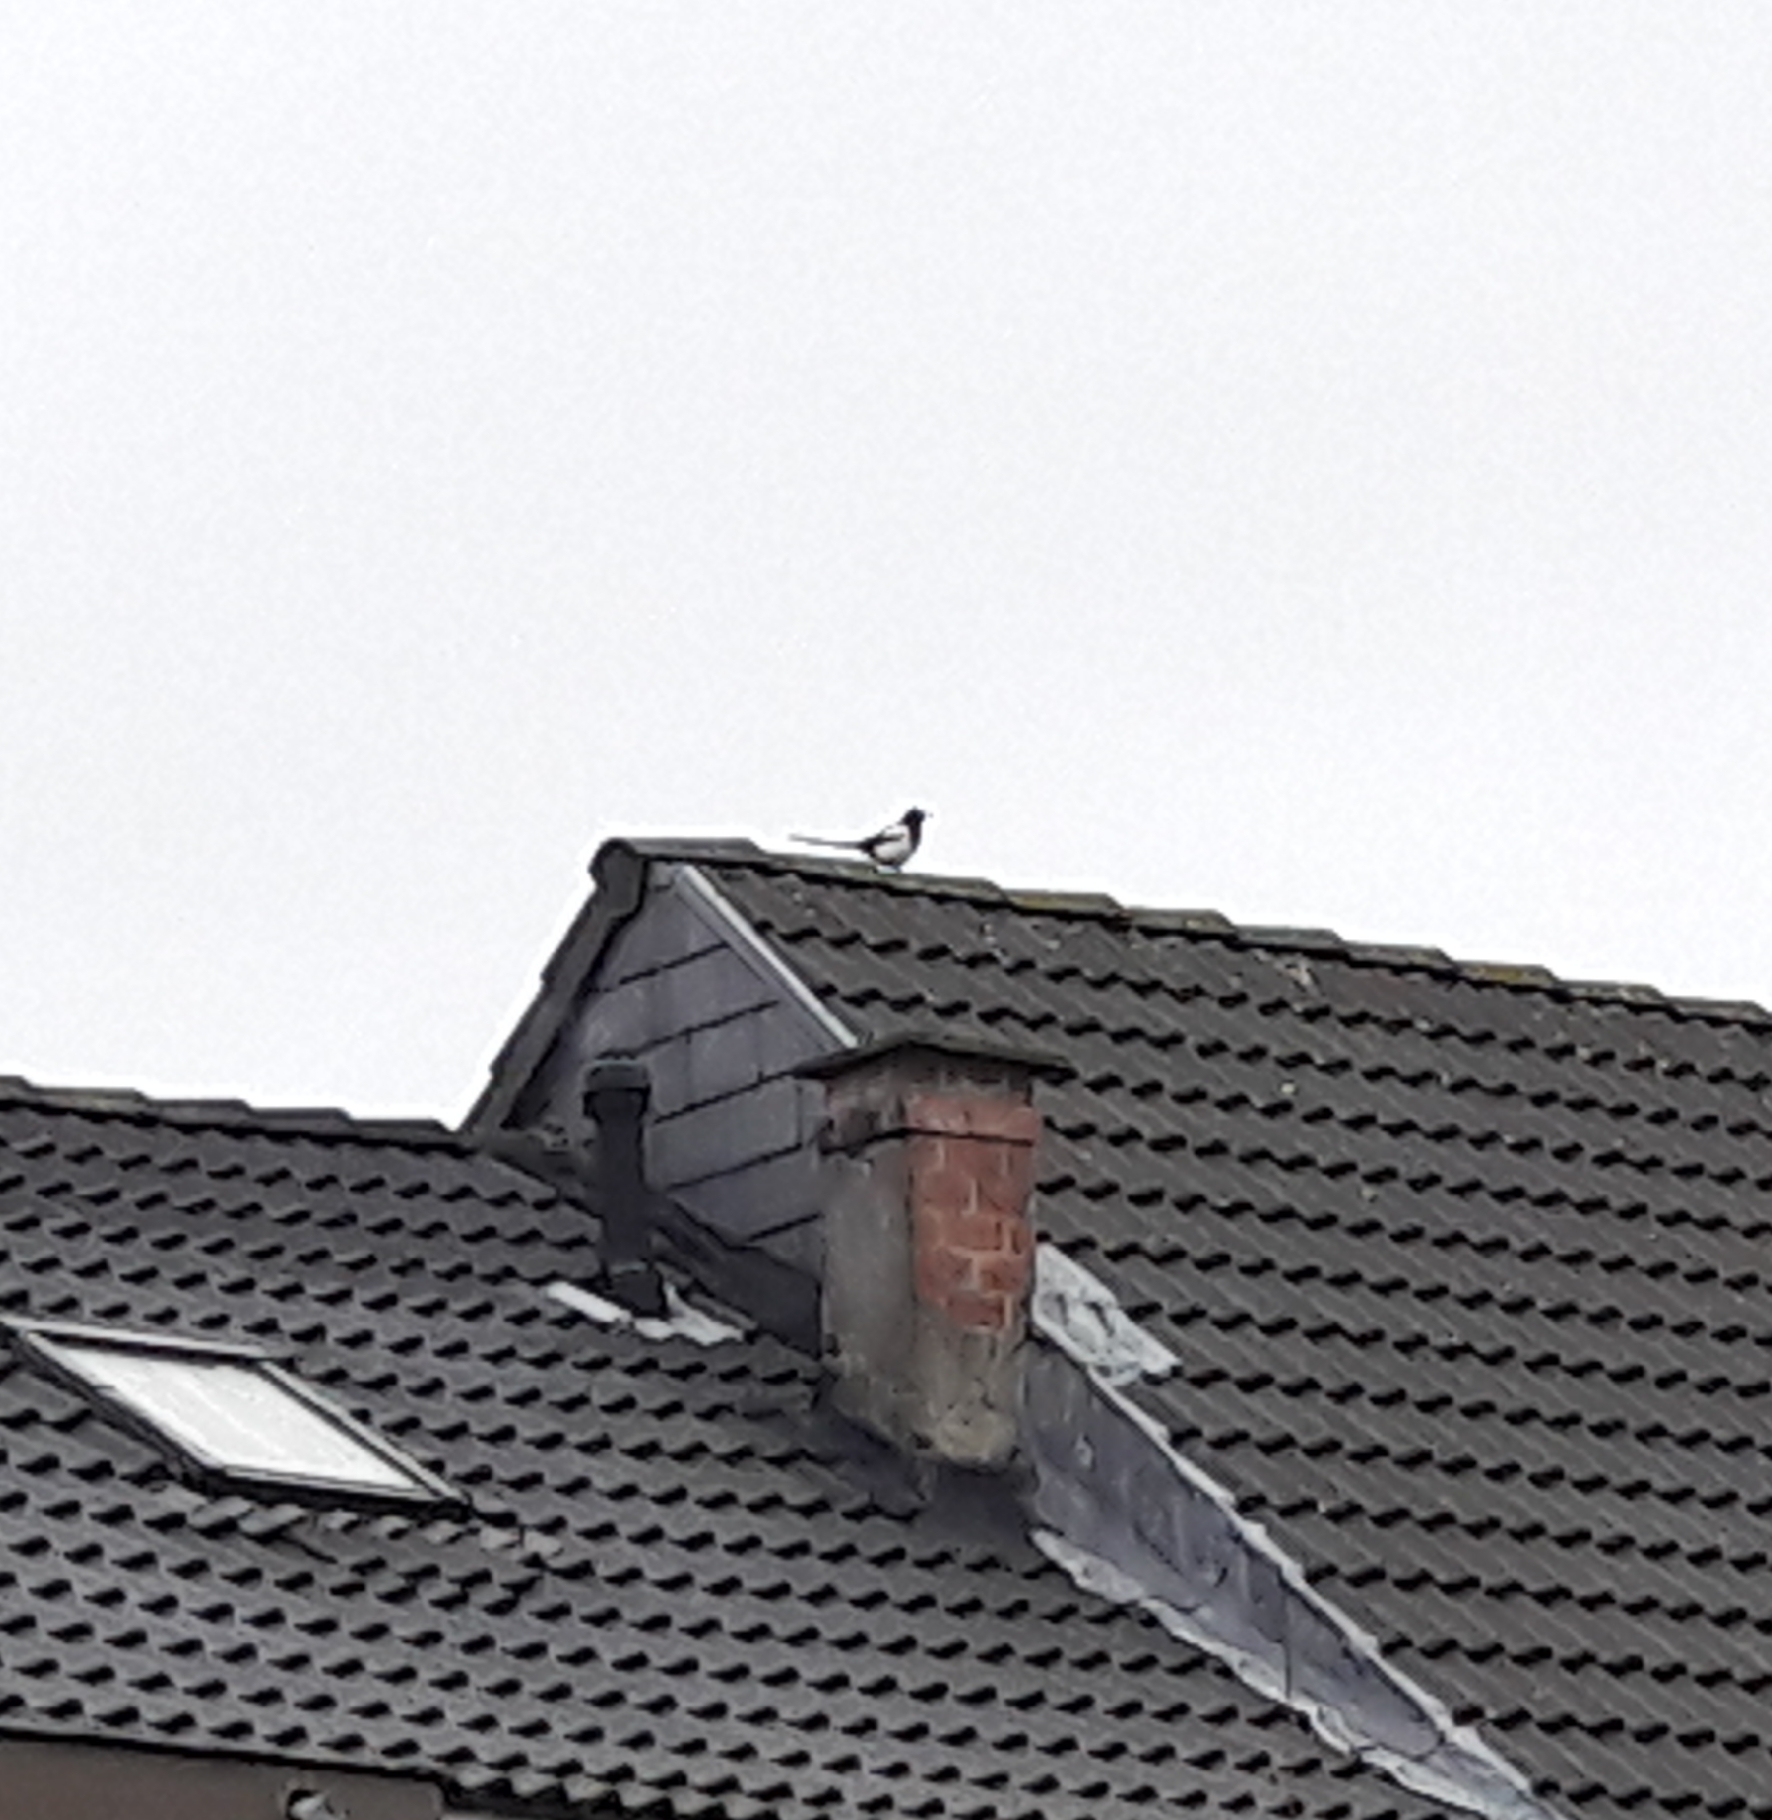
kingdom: Animalia
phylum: Chordata
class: Aves
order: Passeriformes
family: Corvidae
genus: Pica
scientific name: Pica pica
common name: Eurasian magpie
